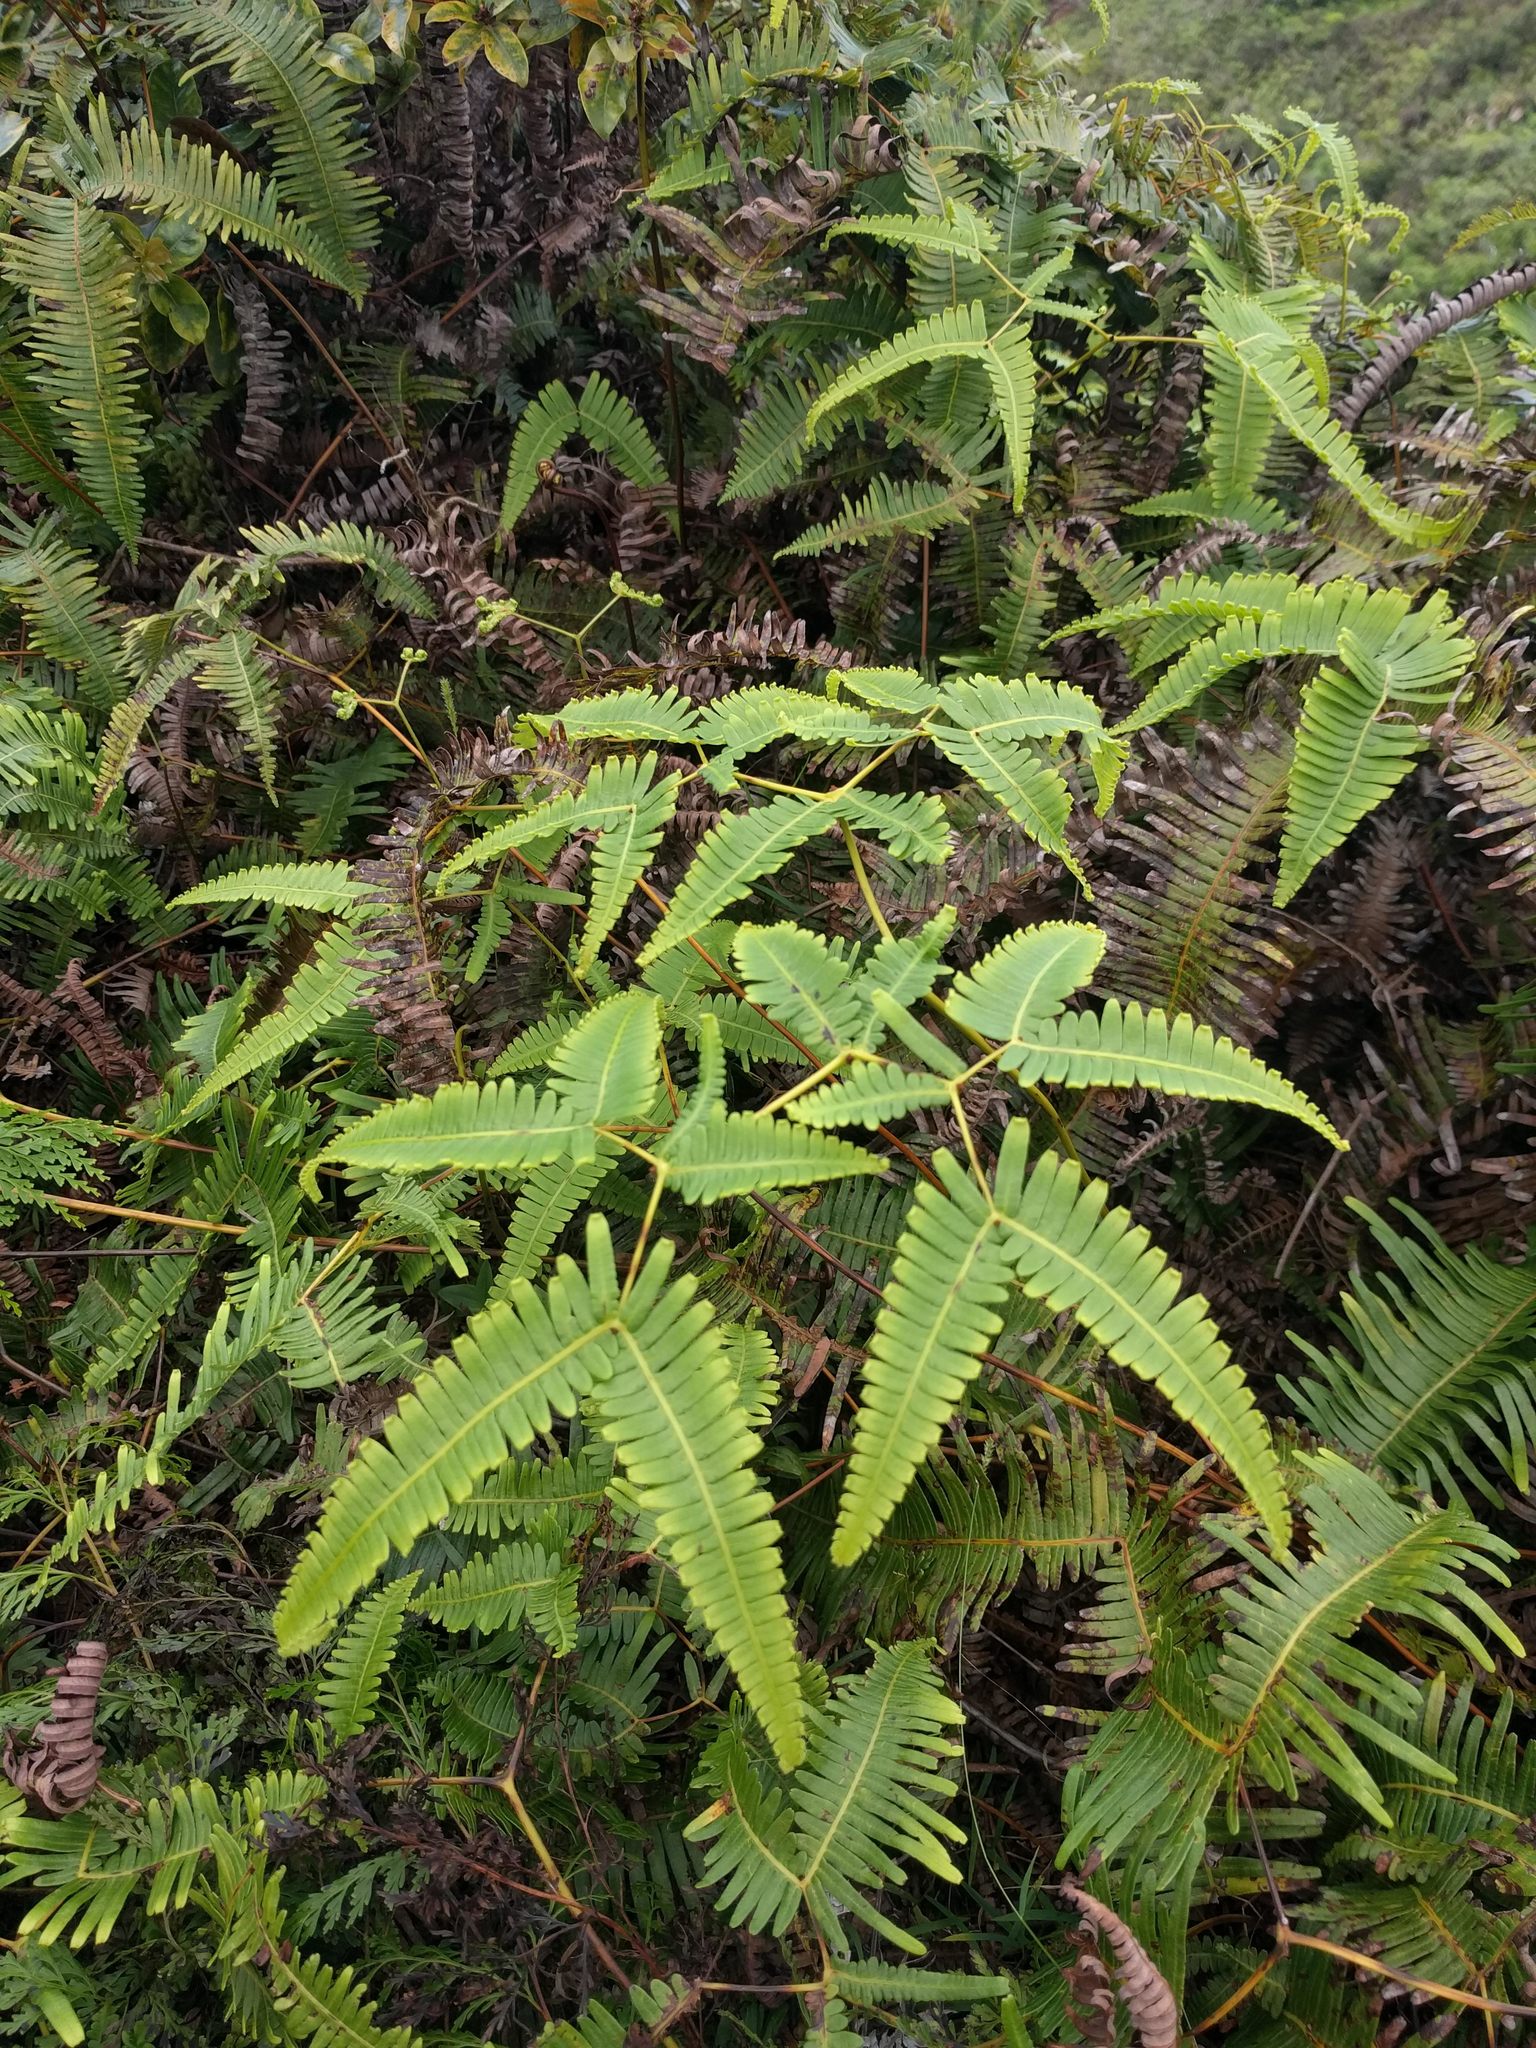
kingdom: Plantae
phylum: Tracheophyta
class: Polypodiopsida
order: Gleicheniales
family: Gleicheniaceae
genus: Dicranopteris
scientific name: Dicranopteris linearis
